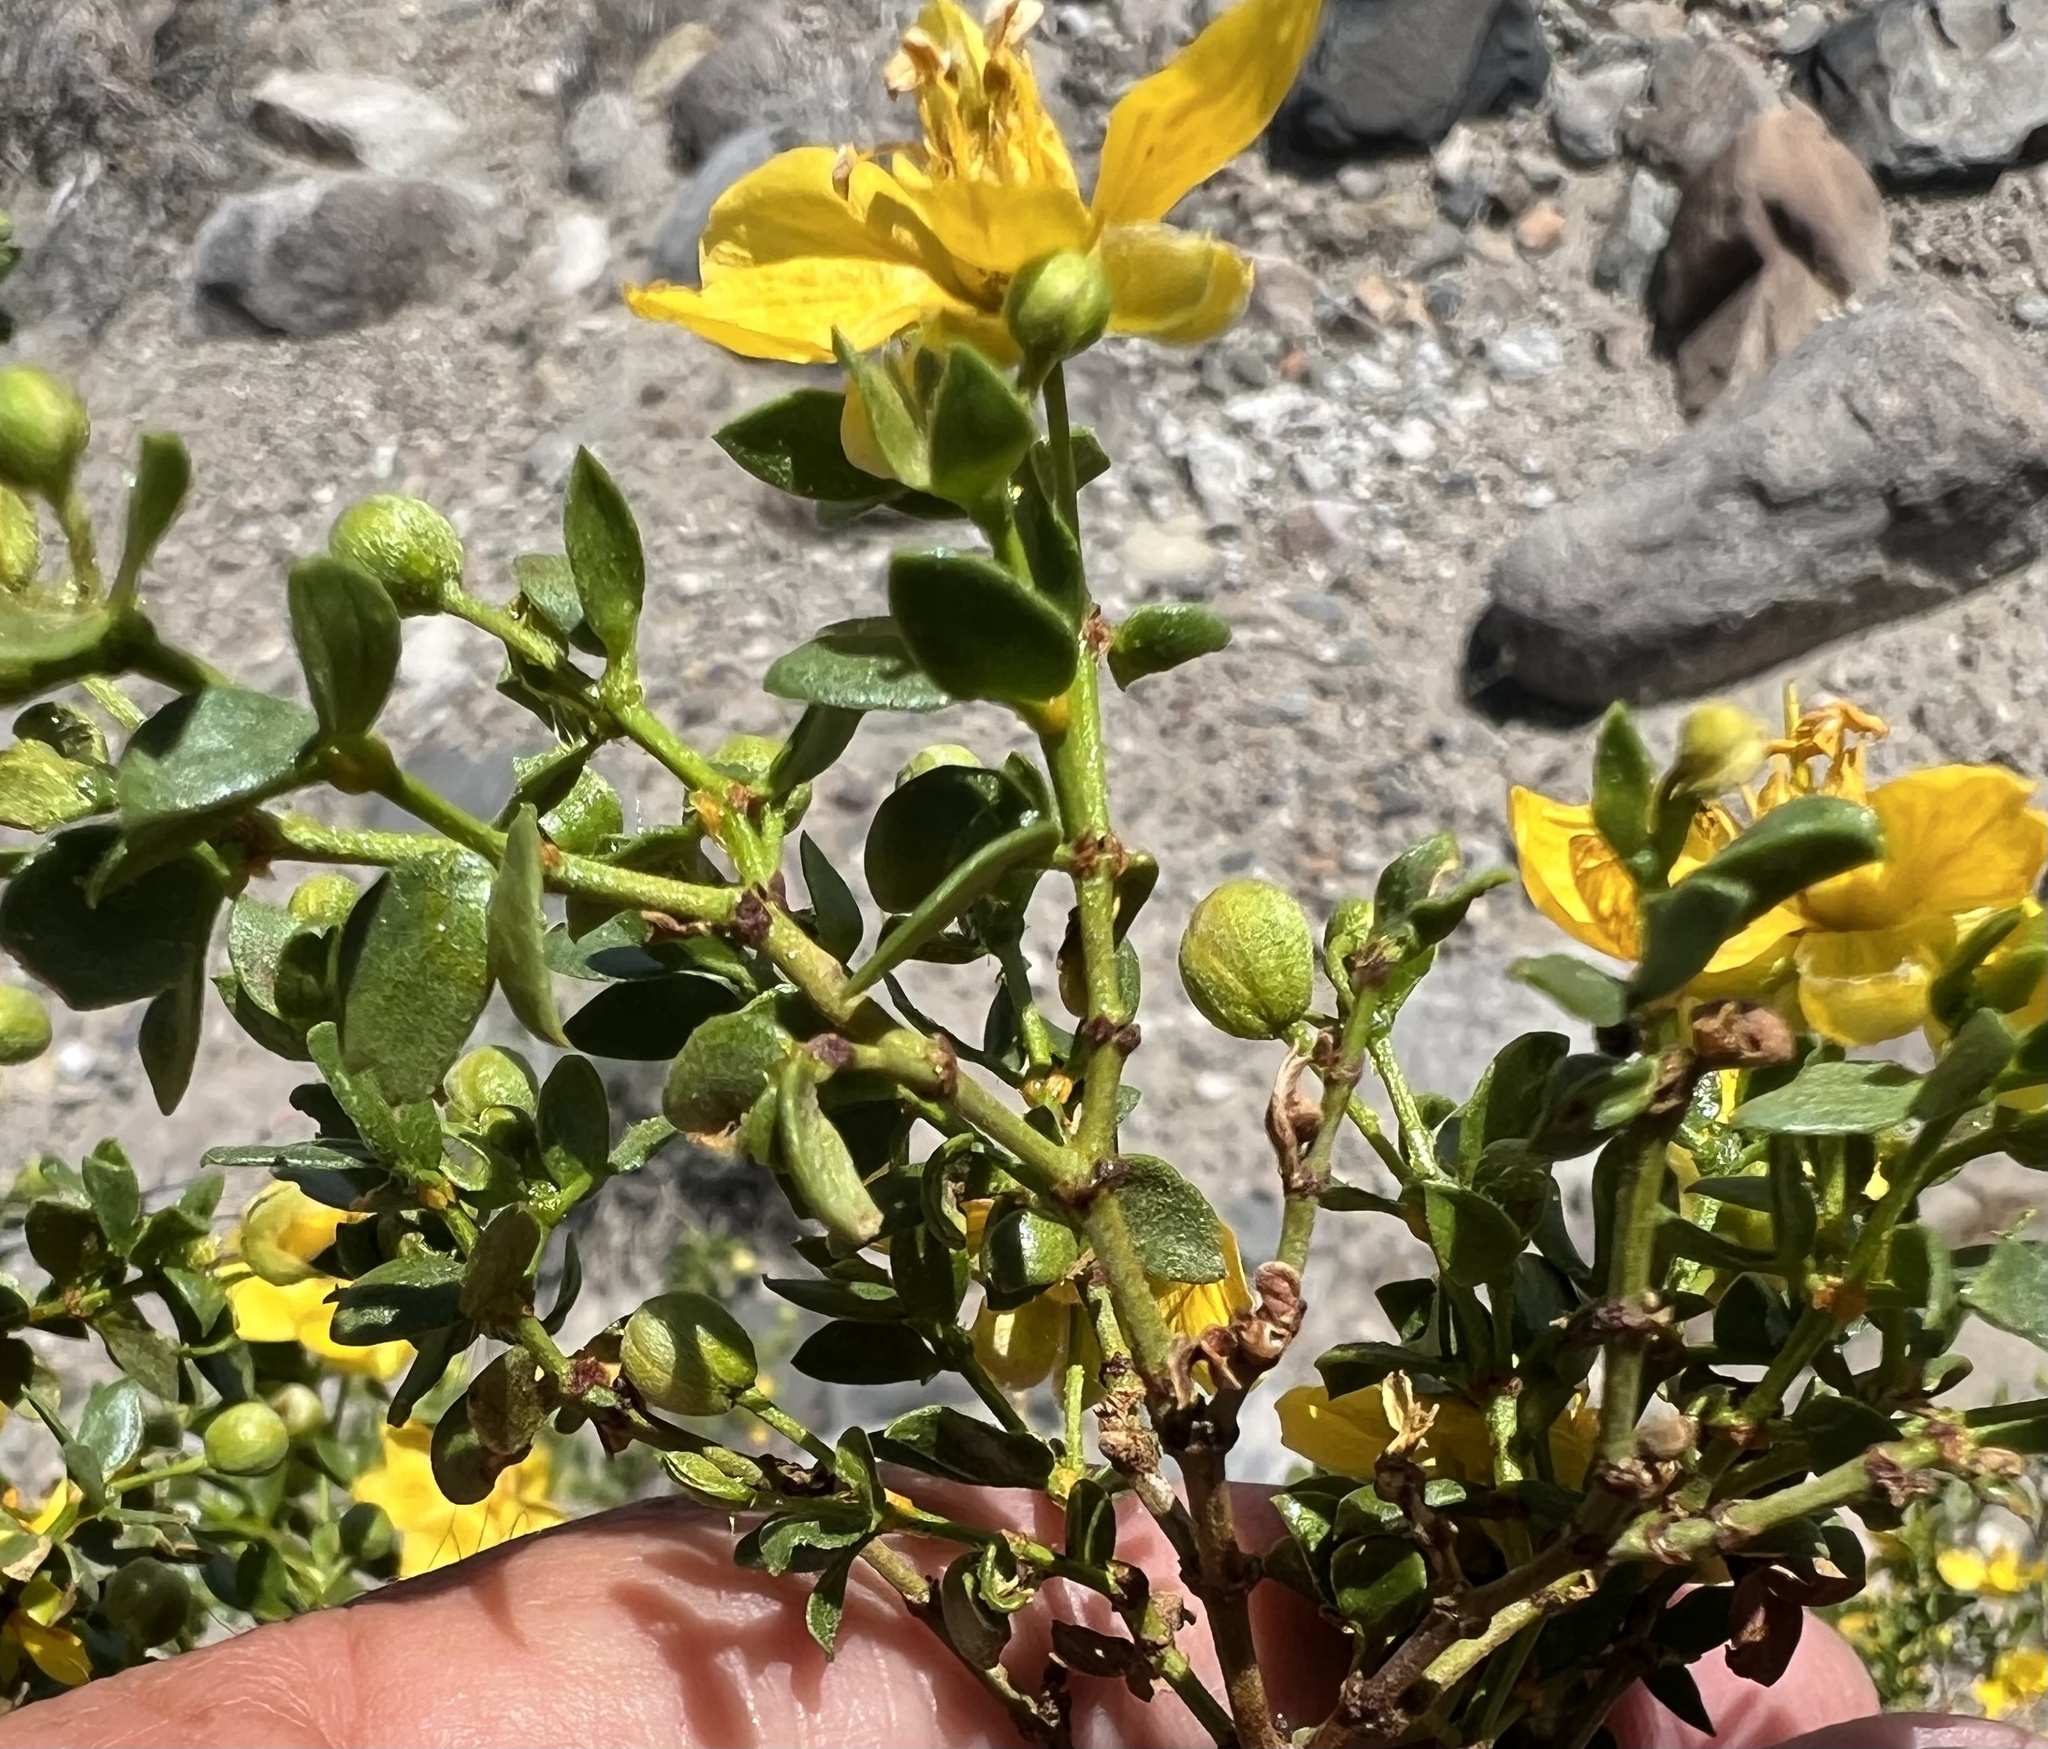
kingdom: Plantae
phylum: Tracheophyta
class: Magnoliopsida
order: Zygophyllales
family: Zygophyllaceae
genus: Larrea
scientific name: Larrea tridentata
